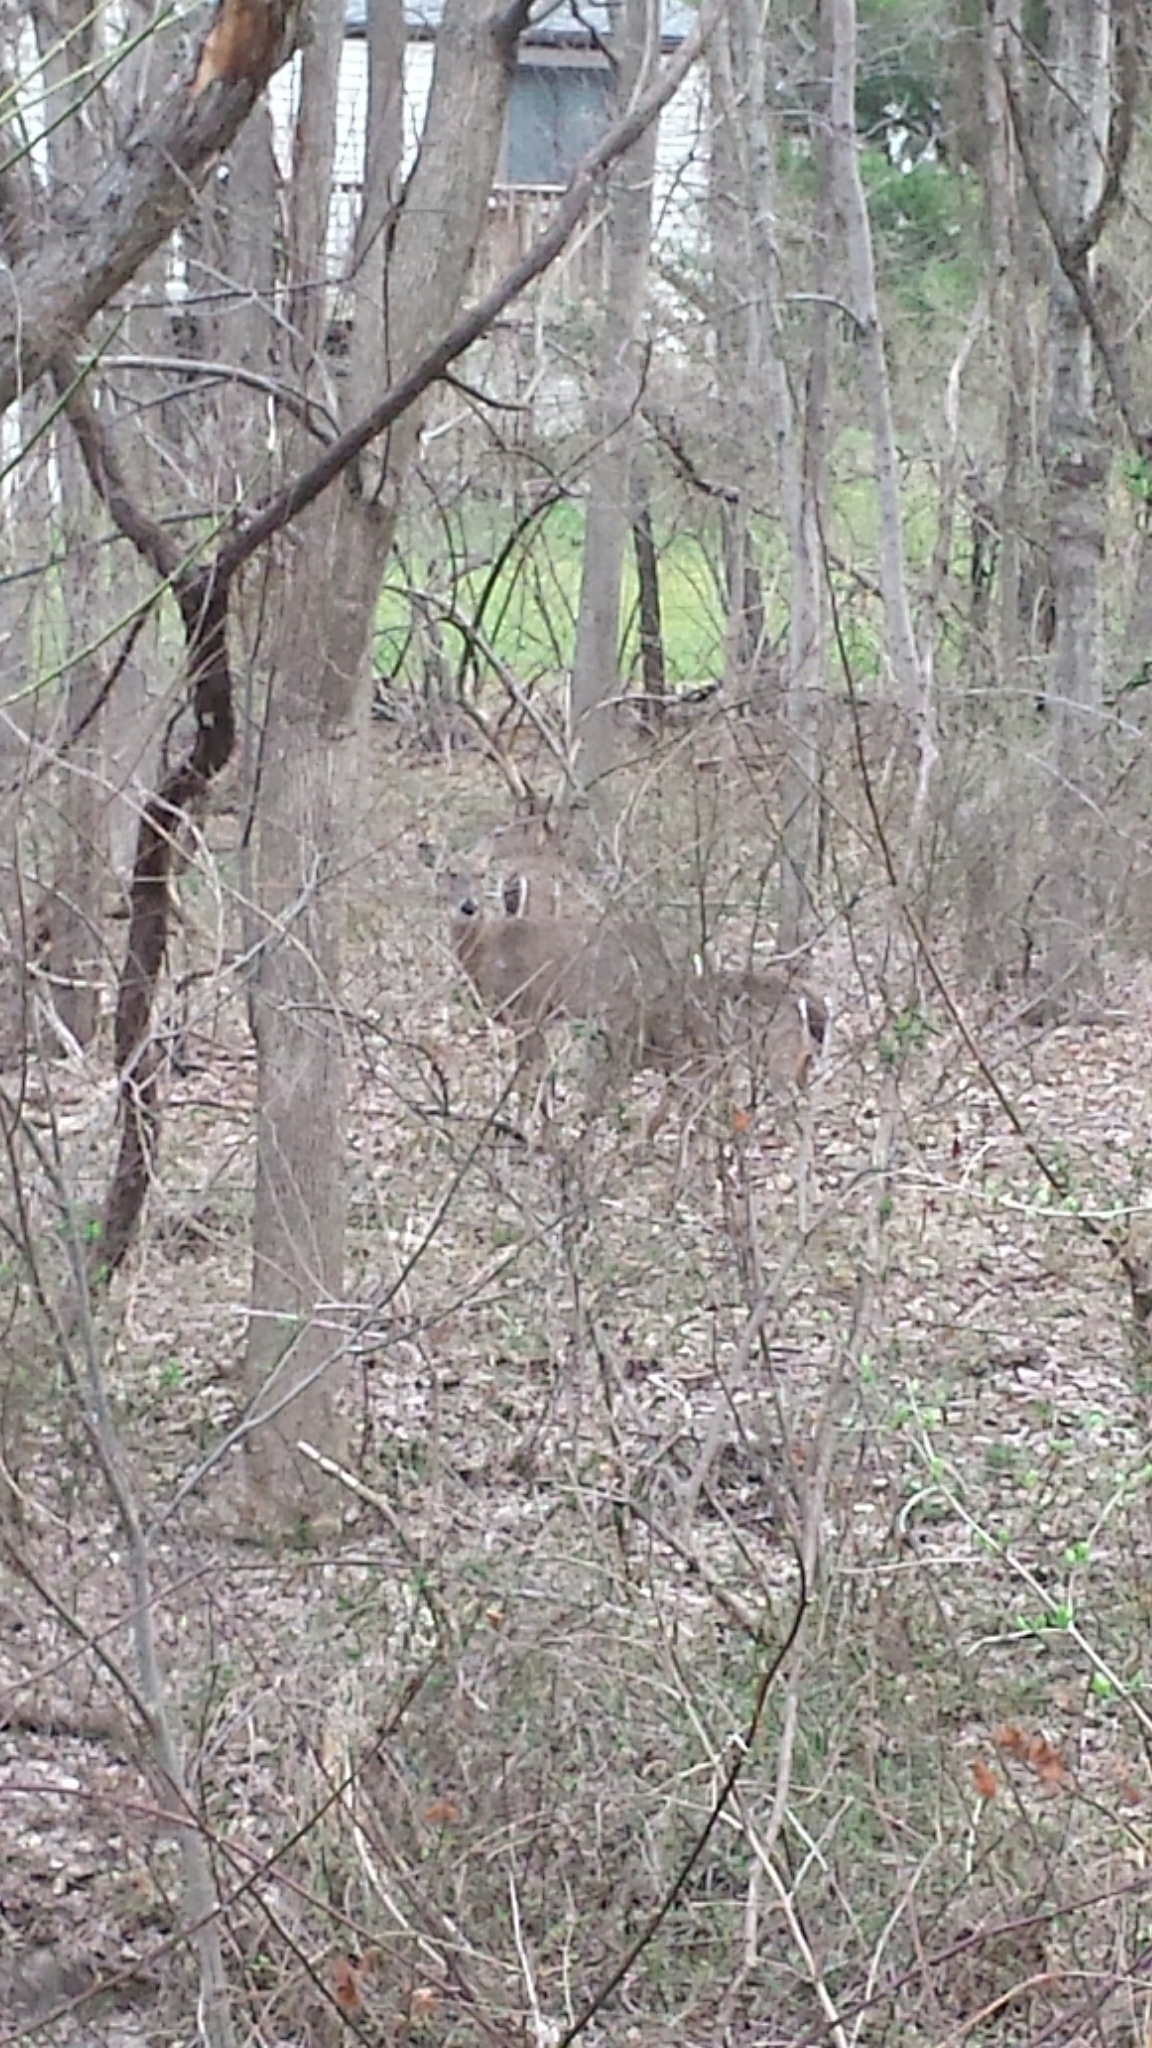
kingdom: Animalia
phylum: Chordata
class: Mammalia
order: Artiodactyla
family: Cervidae
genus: Odocoileus
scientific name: Odocoileus virginianus
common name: White-tailed deer
